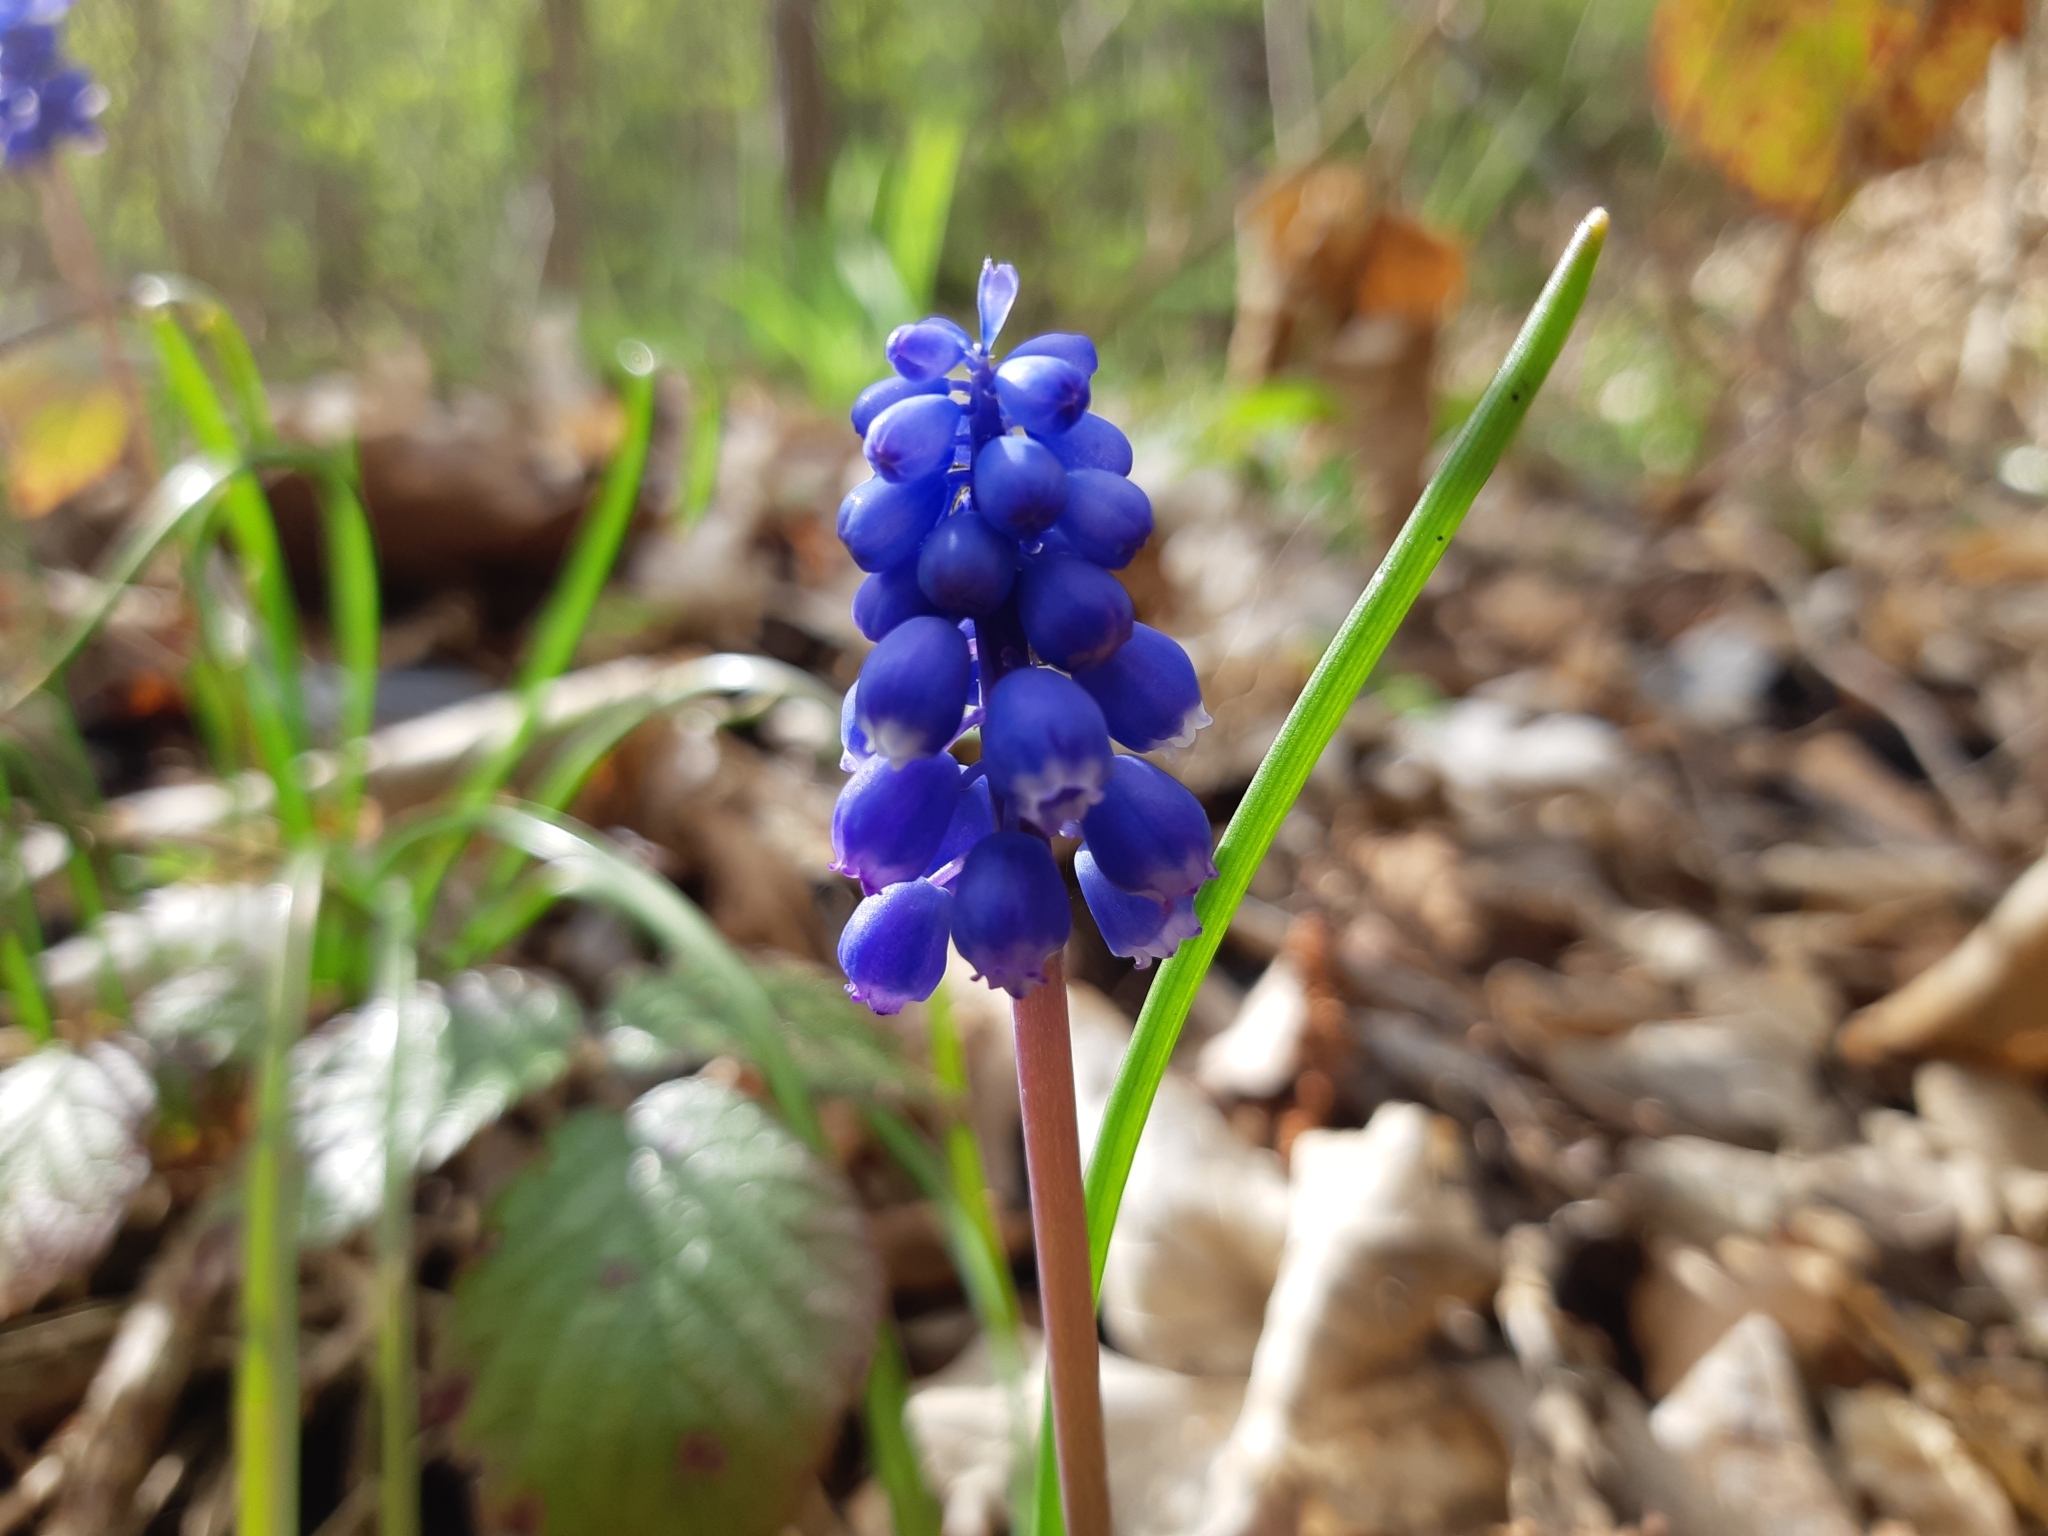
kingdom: Plantae
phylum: Tracheophyta
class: Liliopsida
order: Asparagales
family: Asparagaceae
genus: Muscari
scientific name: Muscari neglectum
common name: Grape-hyacinth
